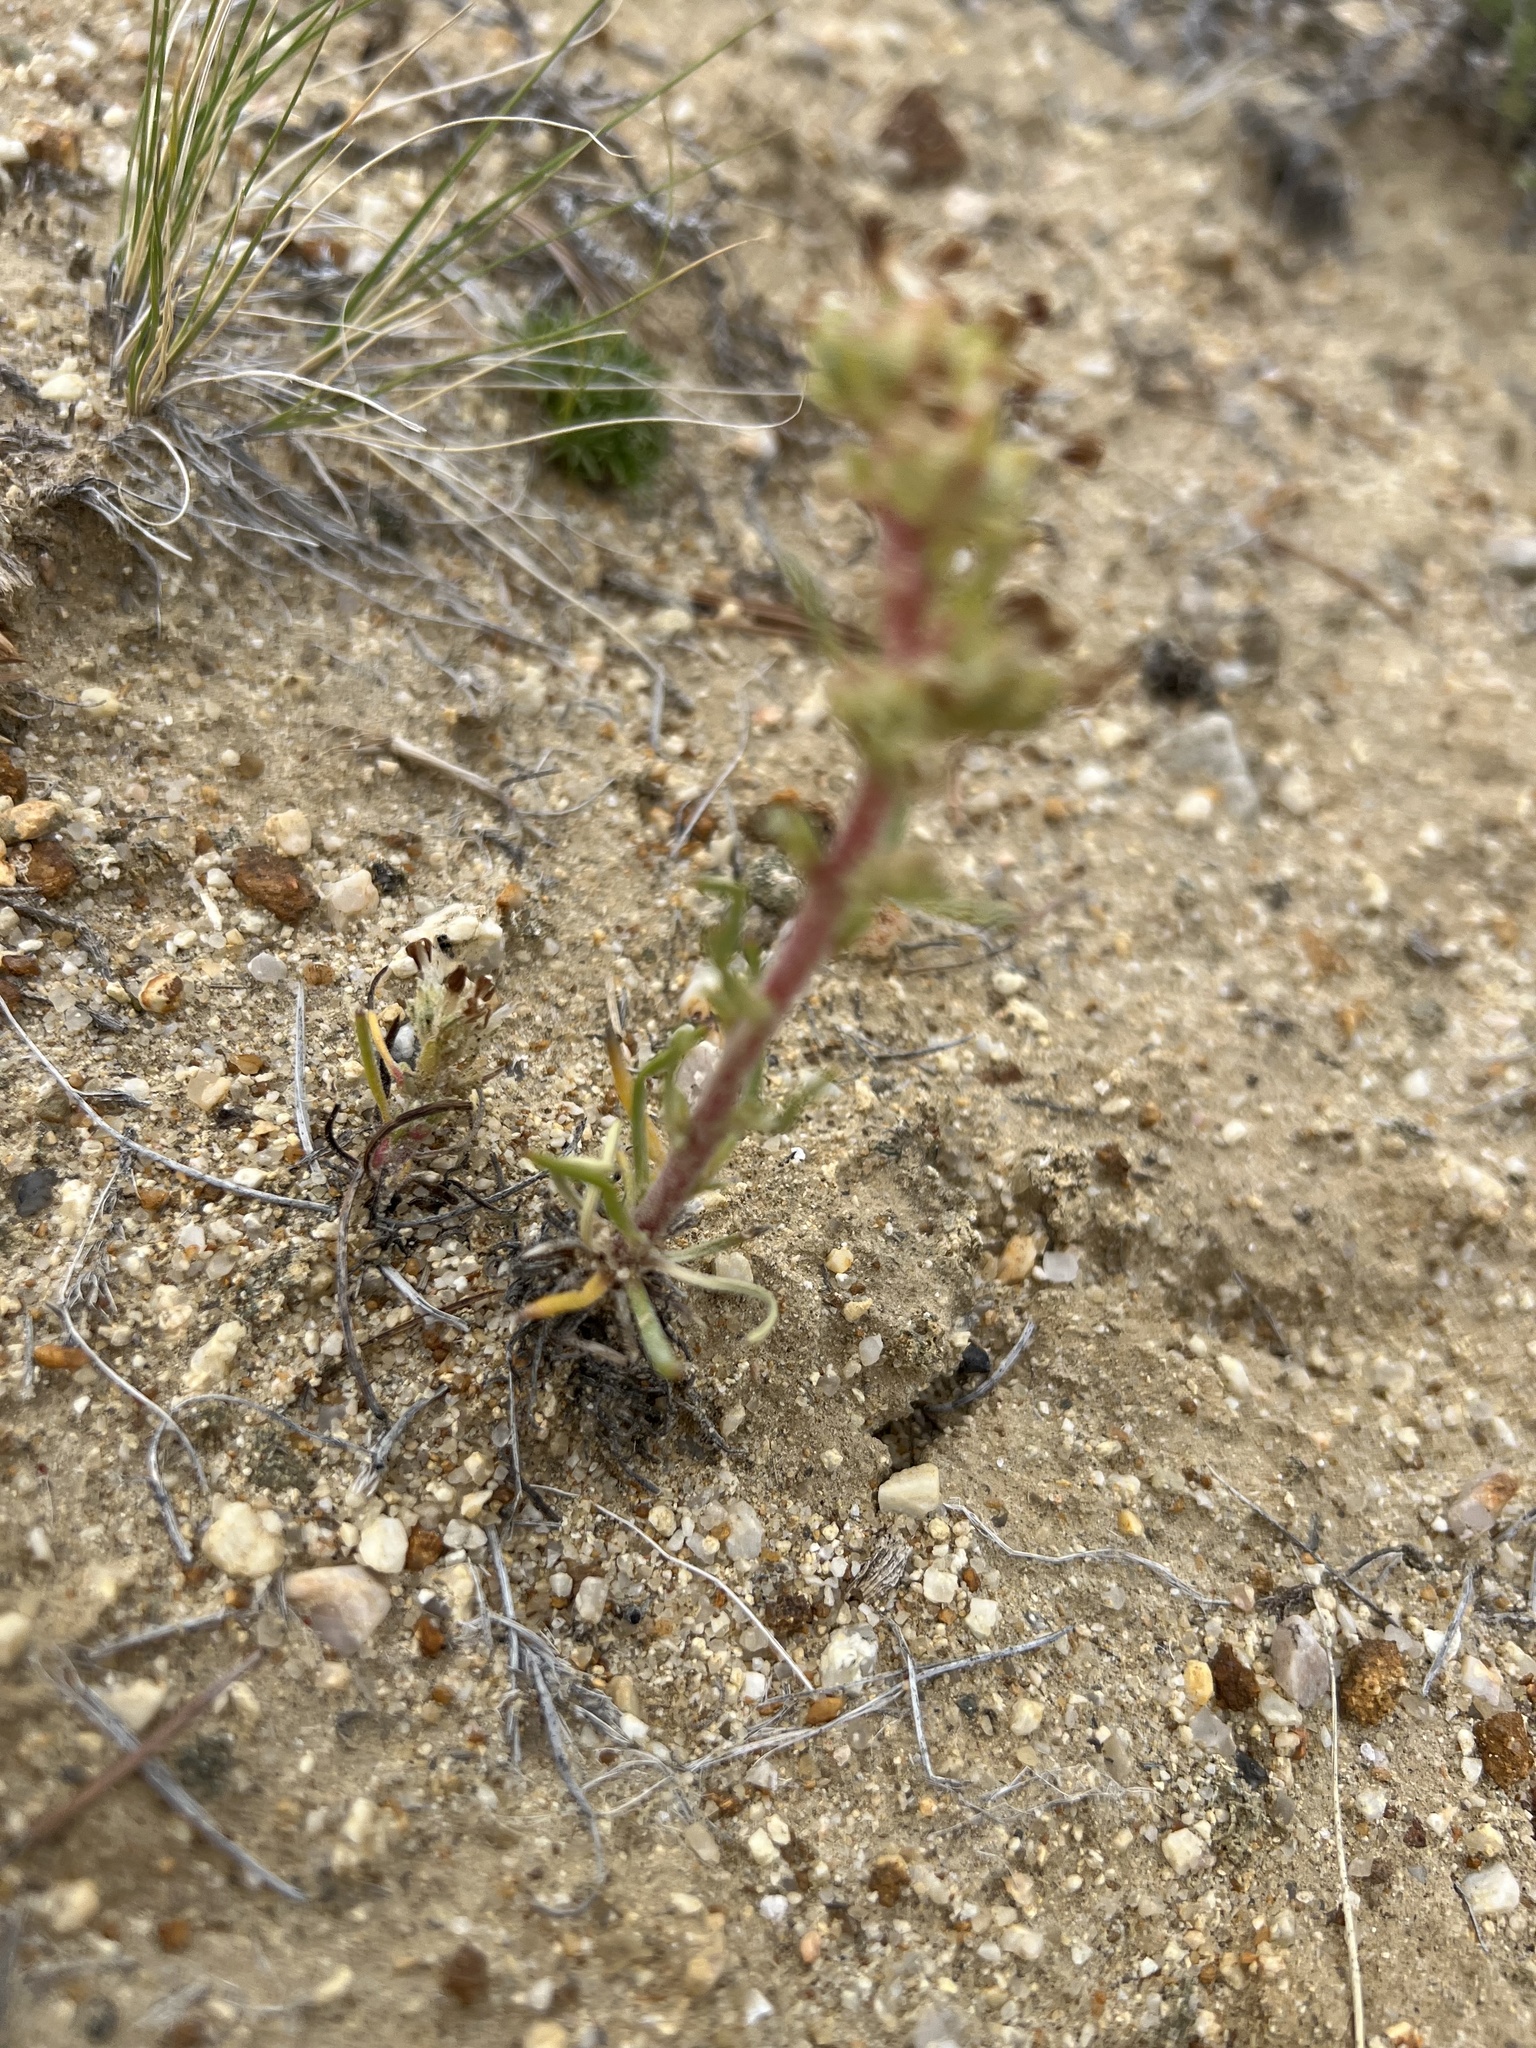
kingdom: Plantae
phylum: Tracheophyta
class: Magnoliopsida
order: Ericales
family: Polemoniaceae
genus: Ipomopsis
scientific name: Ipomopsis spicata
